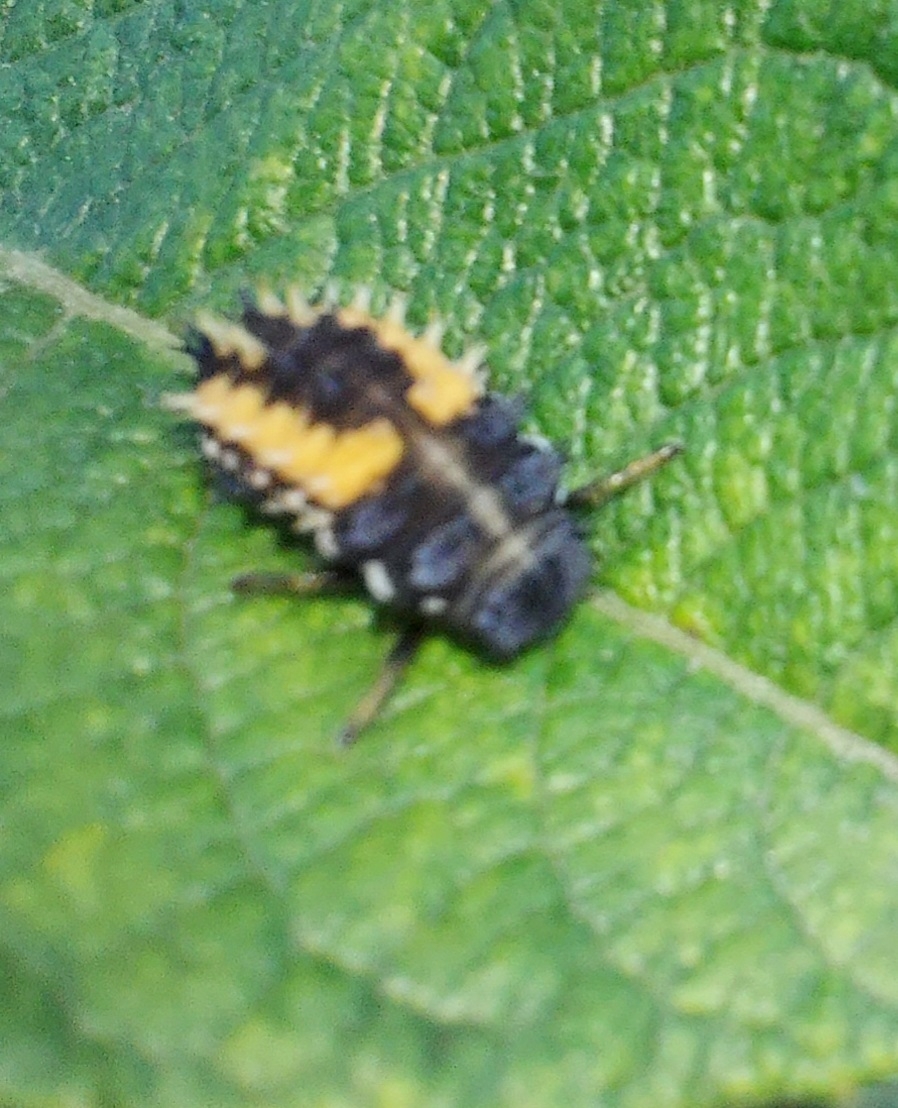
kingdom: Animalia
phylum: Arthropoda
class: Insecta
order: Coleoptera
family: Coccinellidae
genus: Harmonia
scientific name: Harmonia axyridis
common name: Harlequin ladybird
